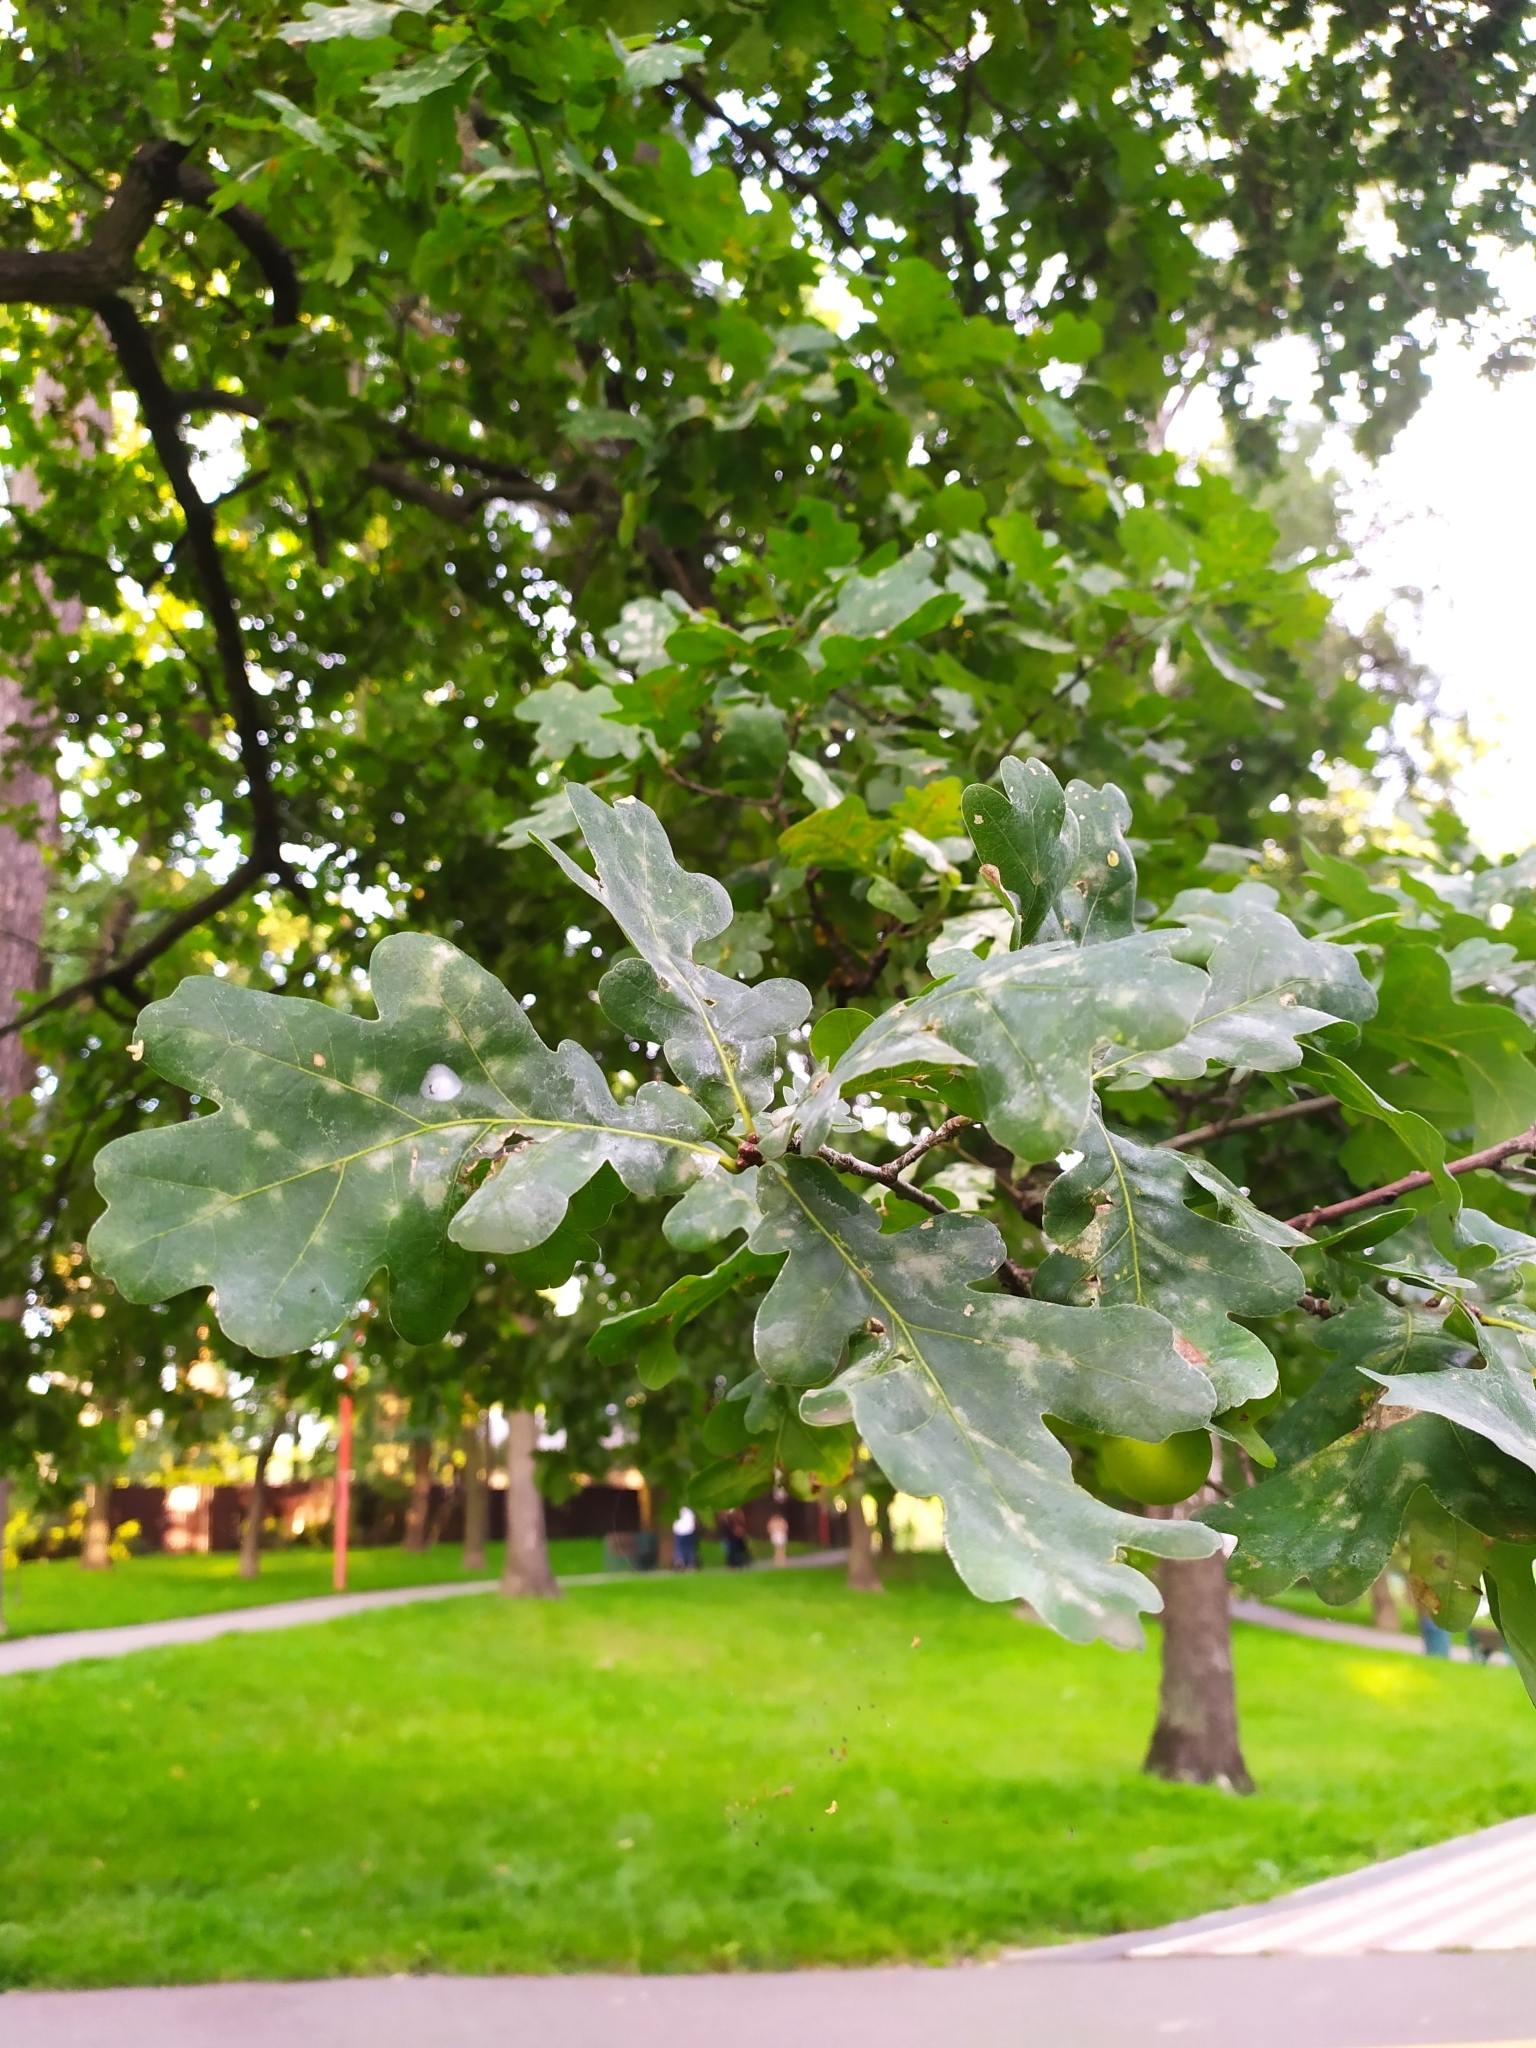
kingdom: Plantae
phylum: Tracheophyta
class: Magnoliopsida
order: Fagales
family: Fagaceae
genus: Quercus
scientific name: Quercus robur
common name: Pedunculate oak
